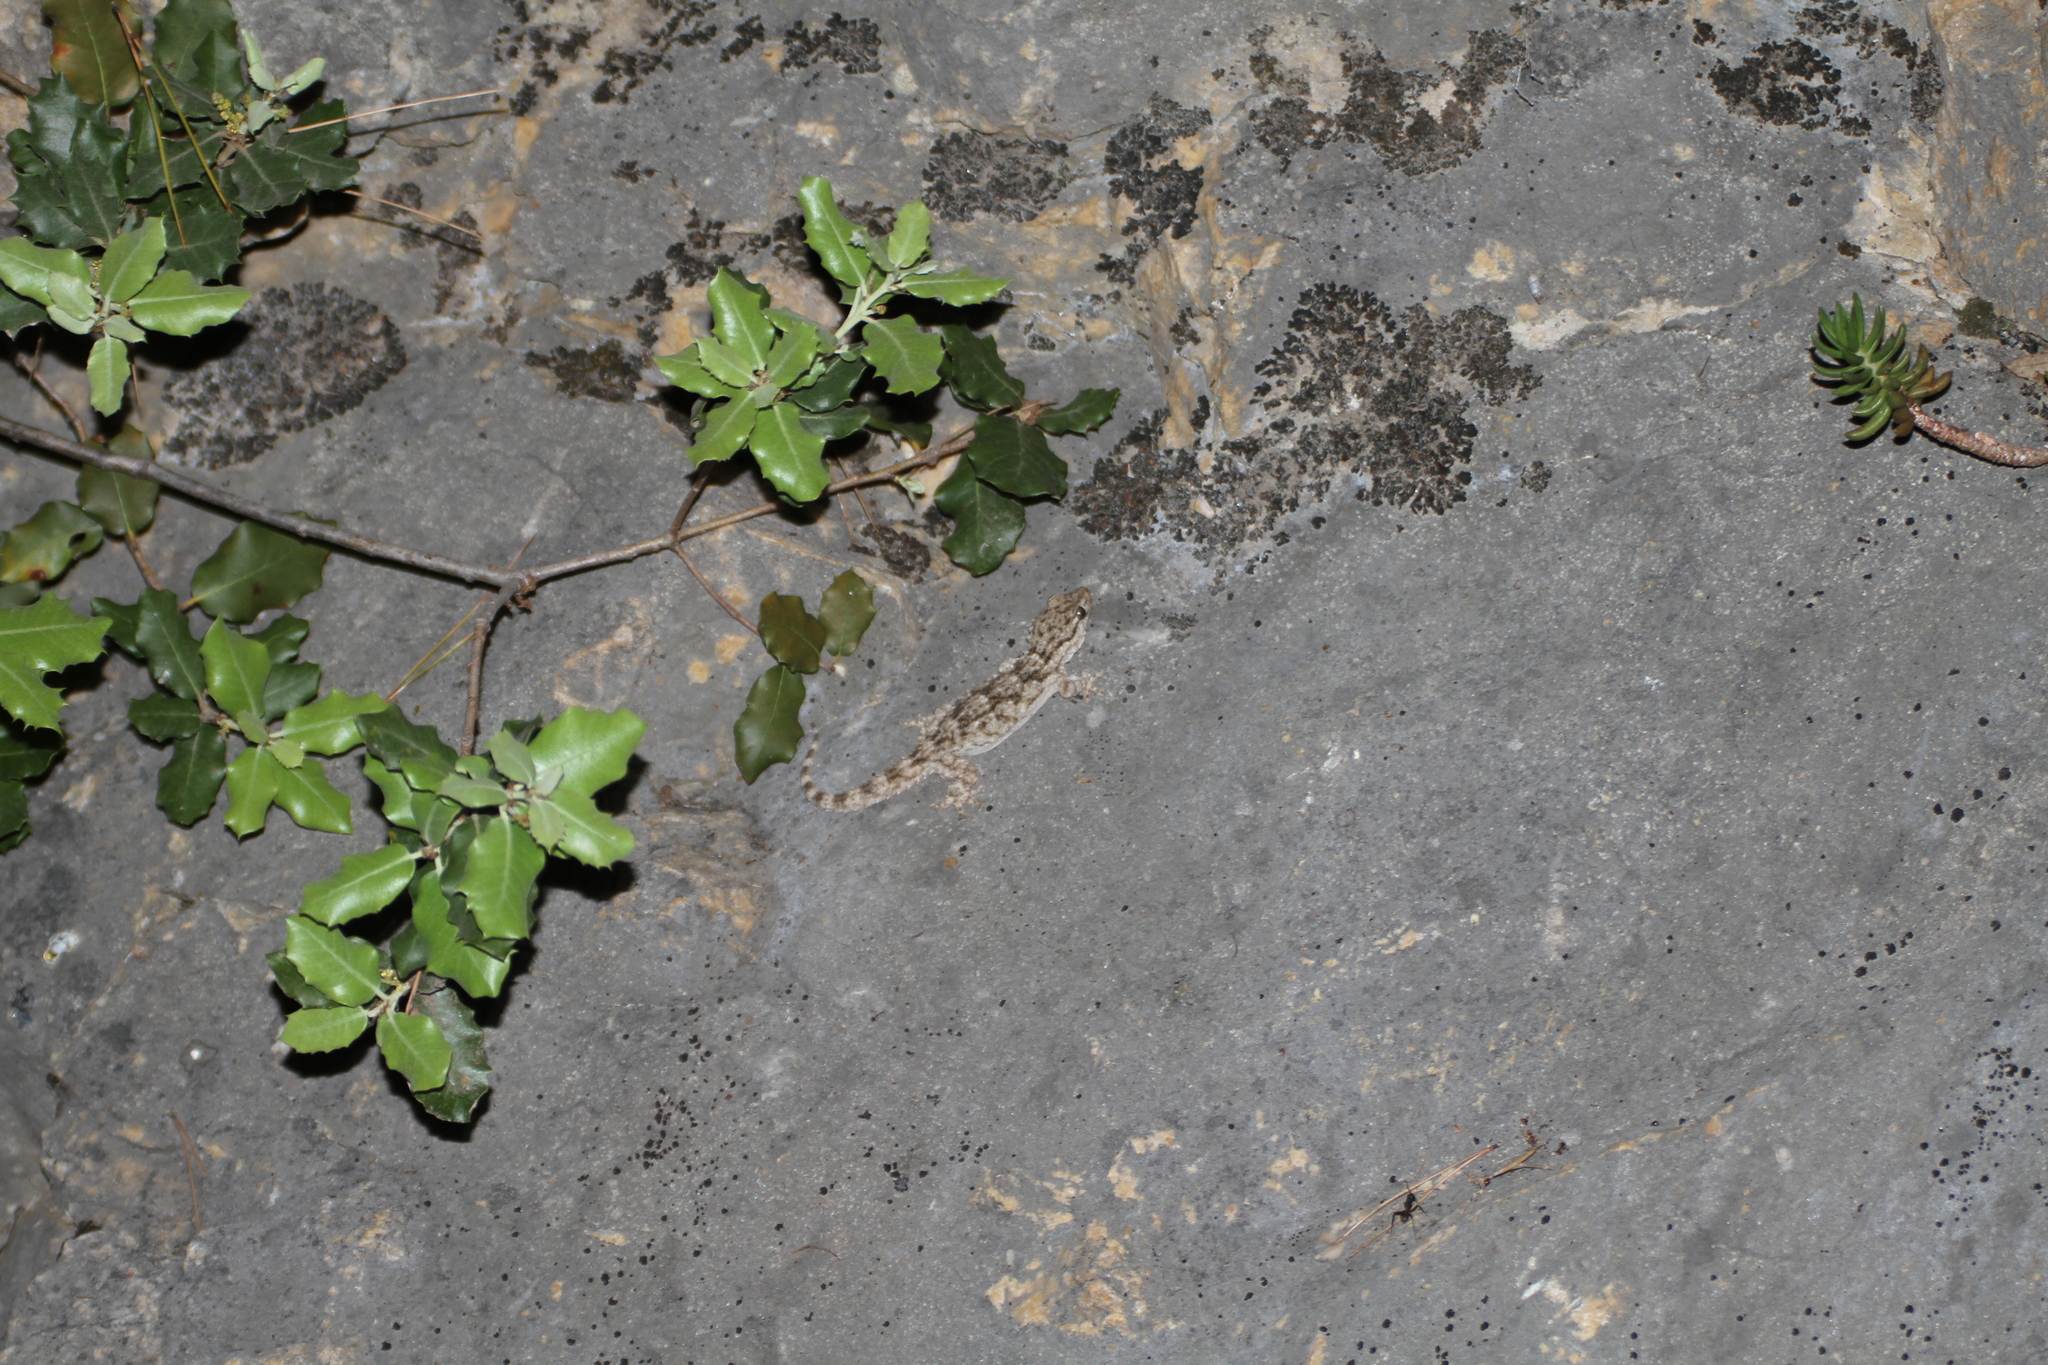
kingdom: Animalia
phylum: Chordata
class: Squamata
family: Phyllodactylidae
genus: Tarentola
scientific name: Tarentola mauritanica
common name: Moorish gecko
